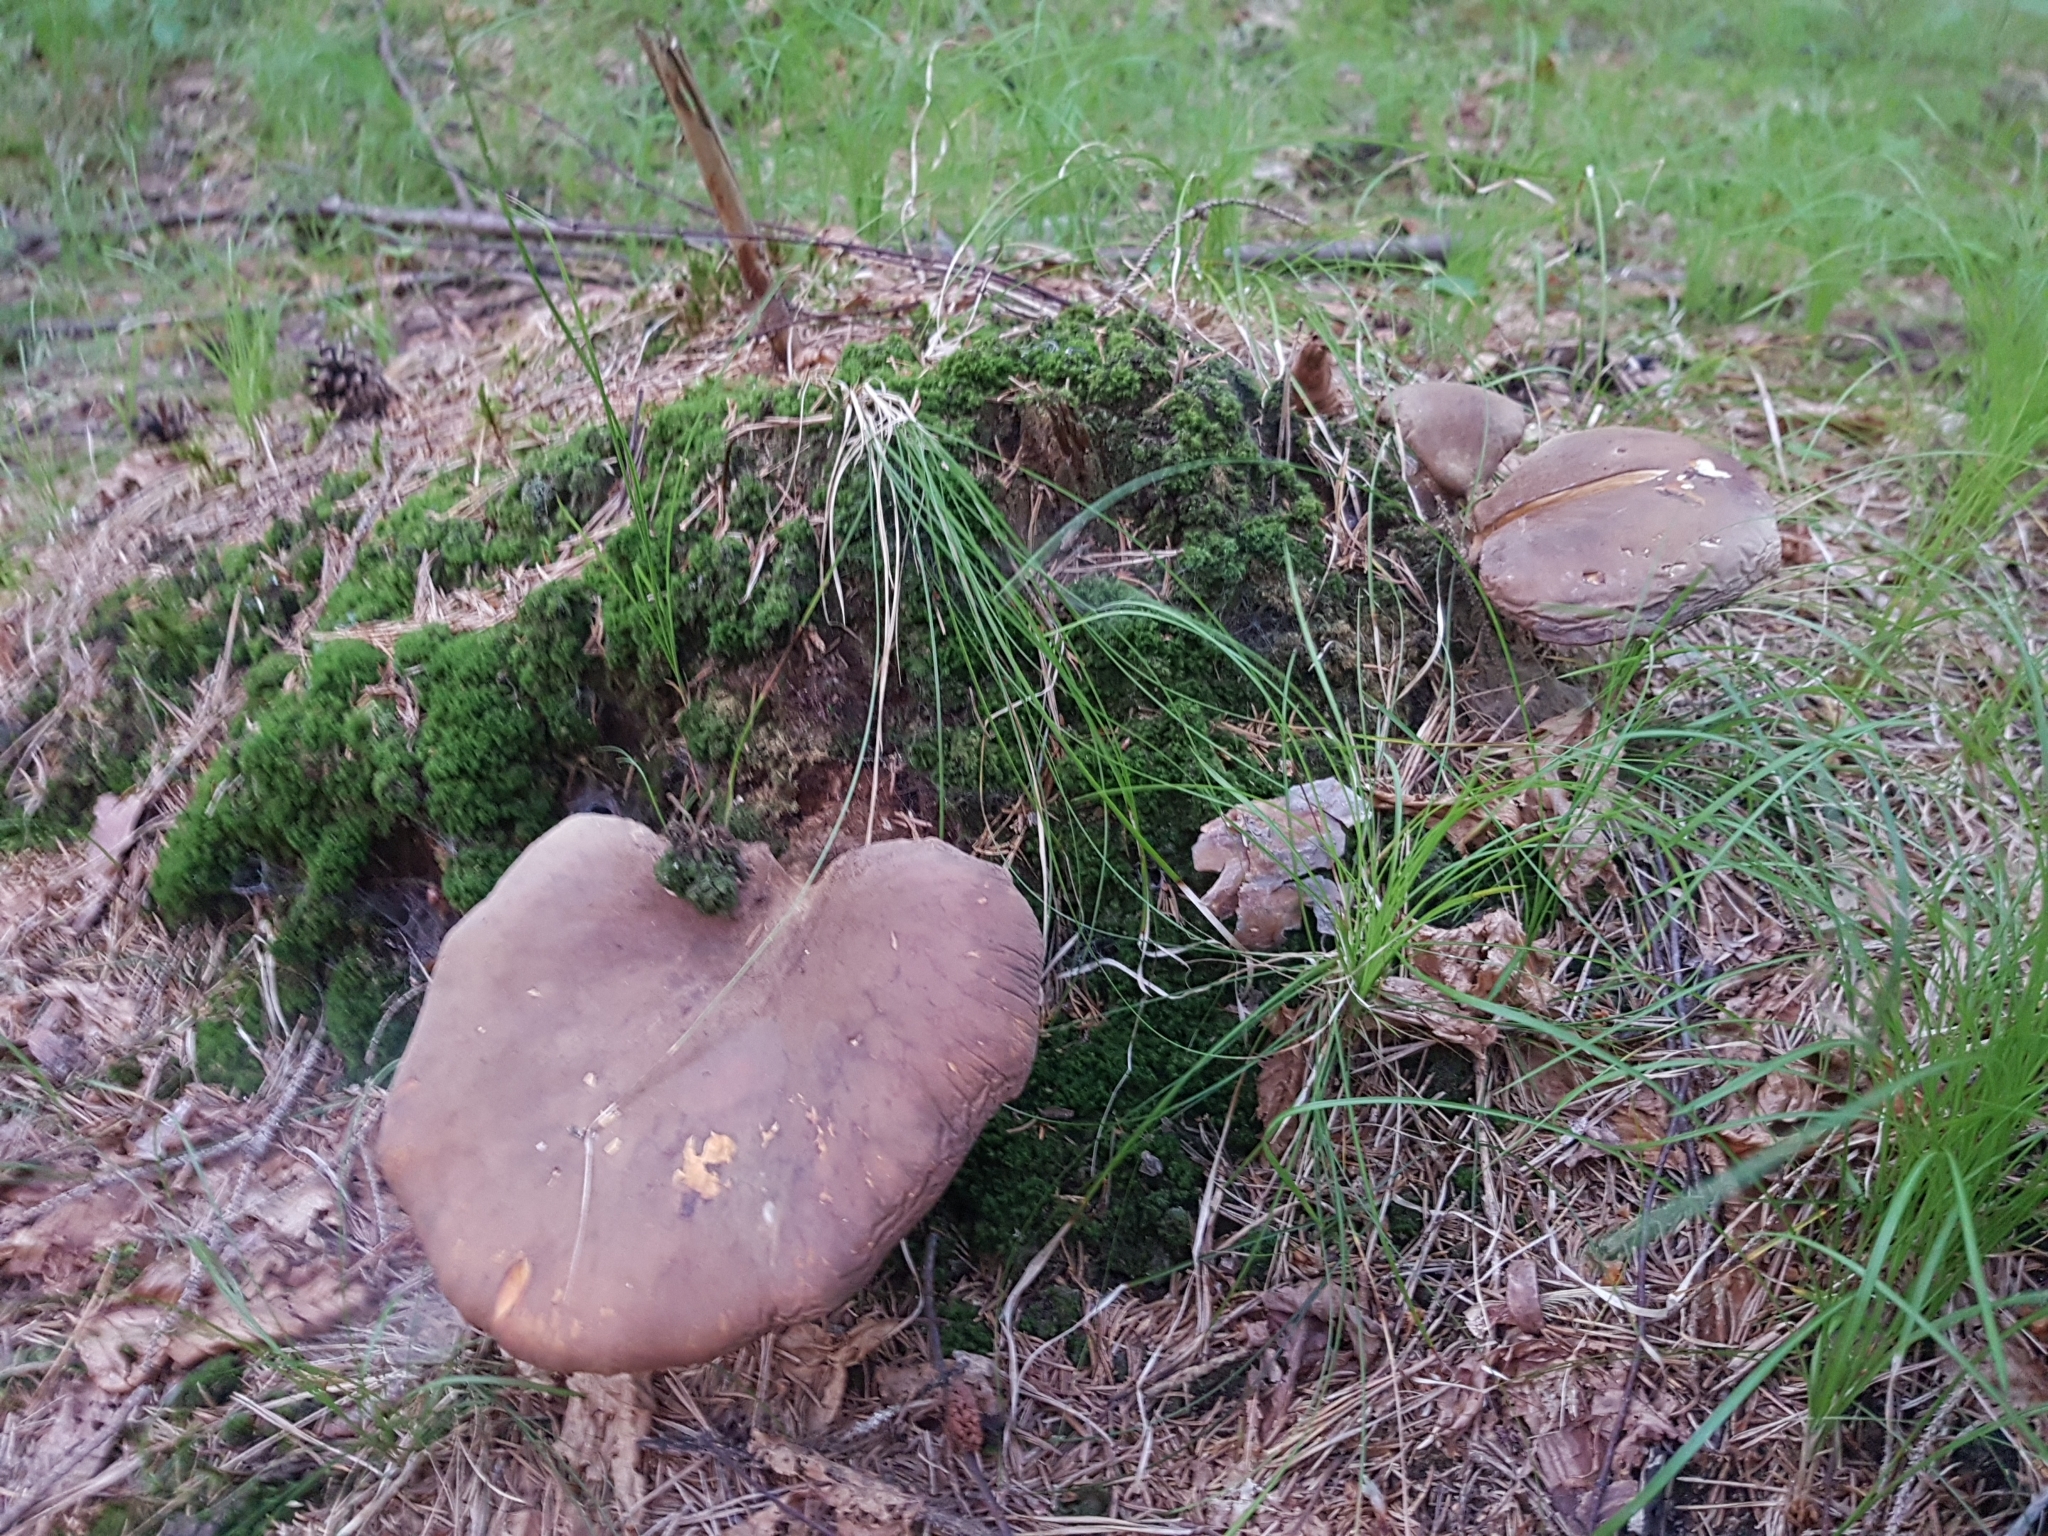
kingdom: Fungi
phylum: Basidiomycota
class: Agaricomycetes
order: Boletales
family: Tapinellaceae
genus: Tapinella
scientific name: Tapinella atrotomentosa
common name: Velvet rollrim
